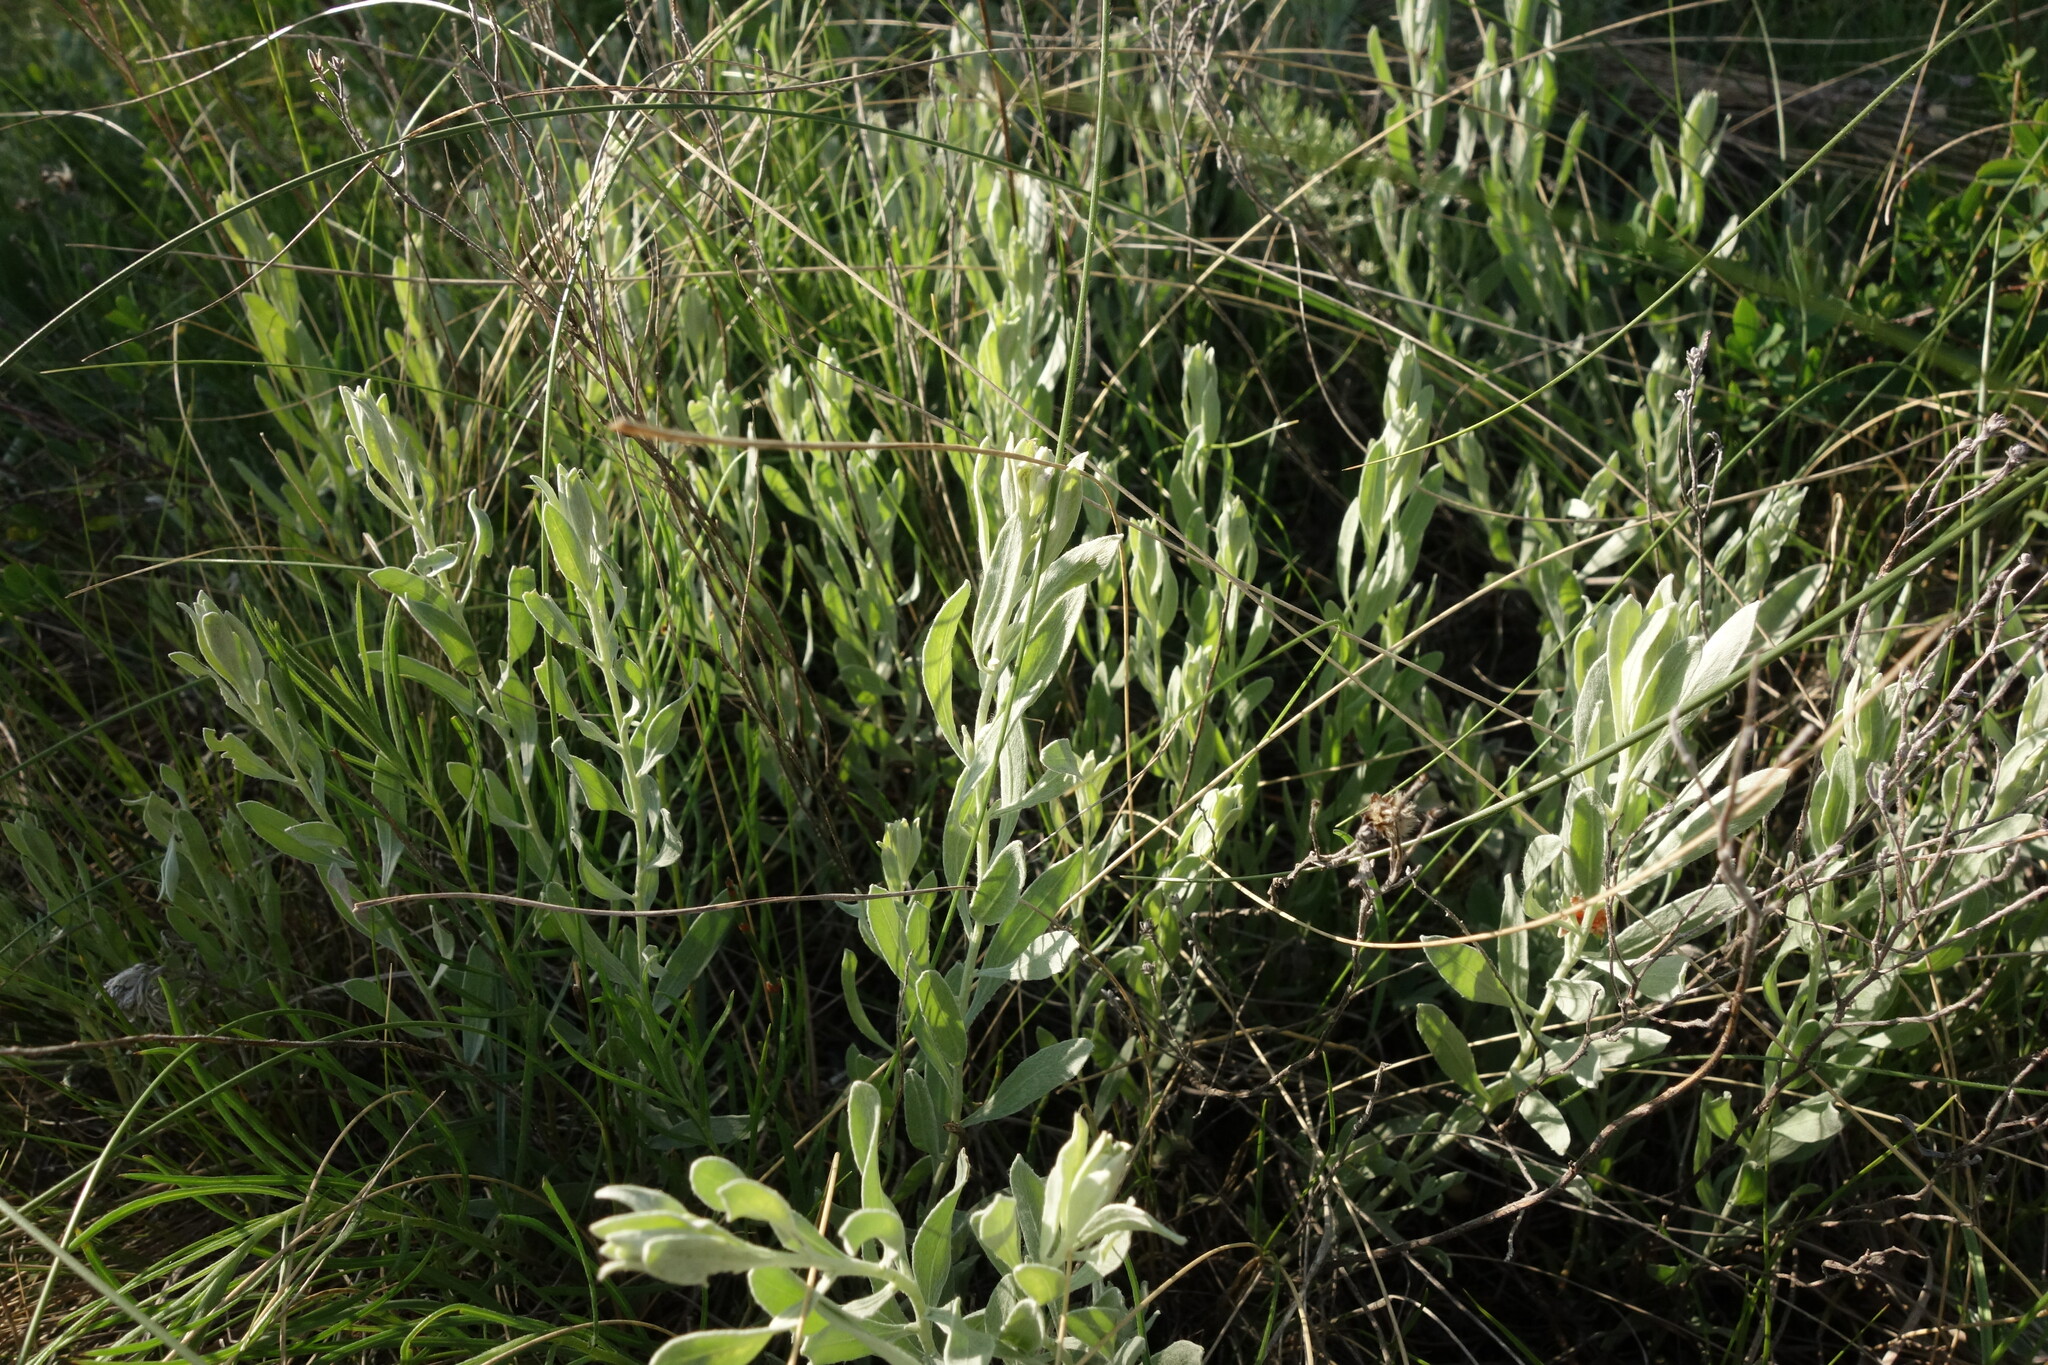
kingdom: Plantae
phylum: Tracheophyta
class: Magnoliopsida
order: Asterales
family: Asteraceae
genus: Galatella
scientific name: Galatella villosa
